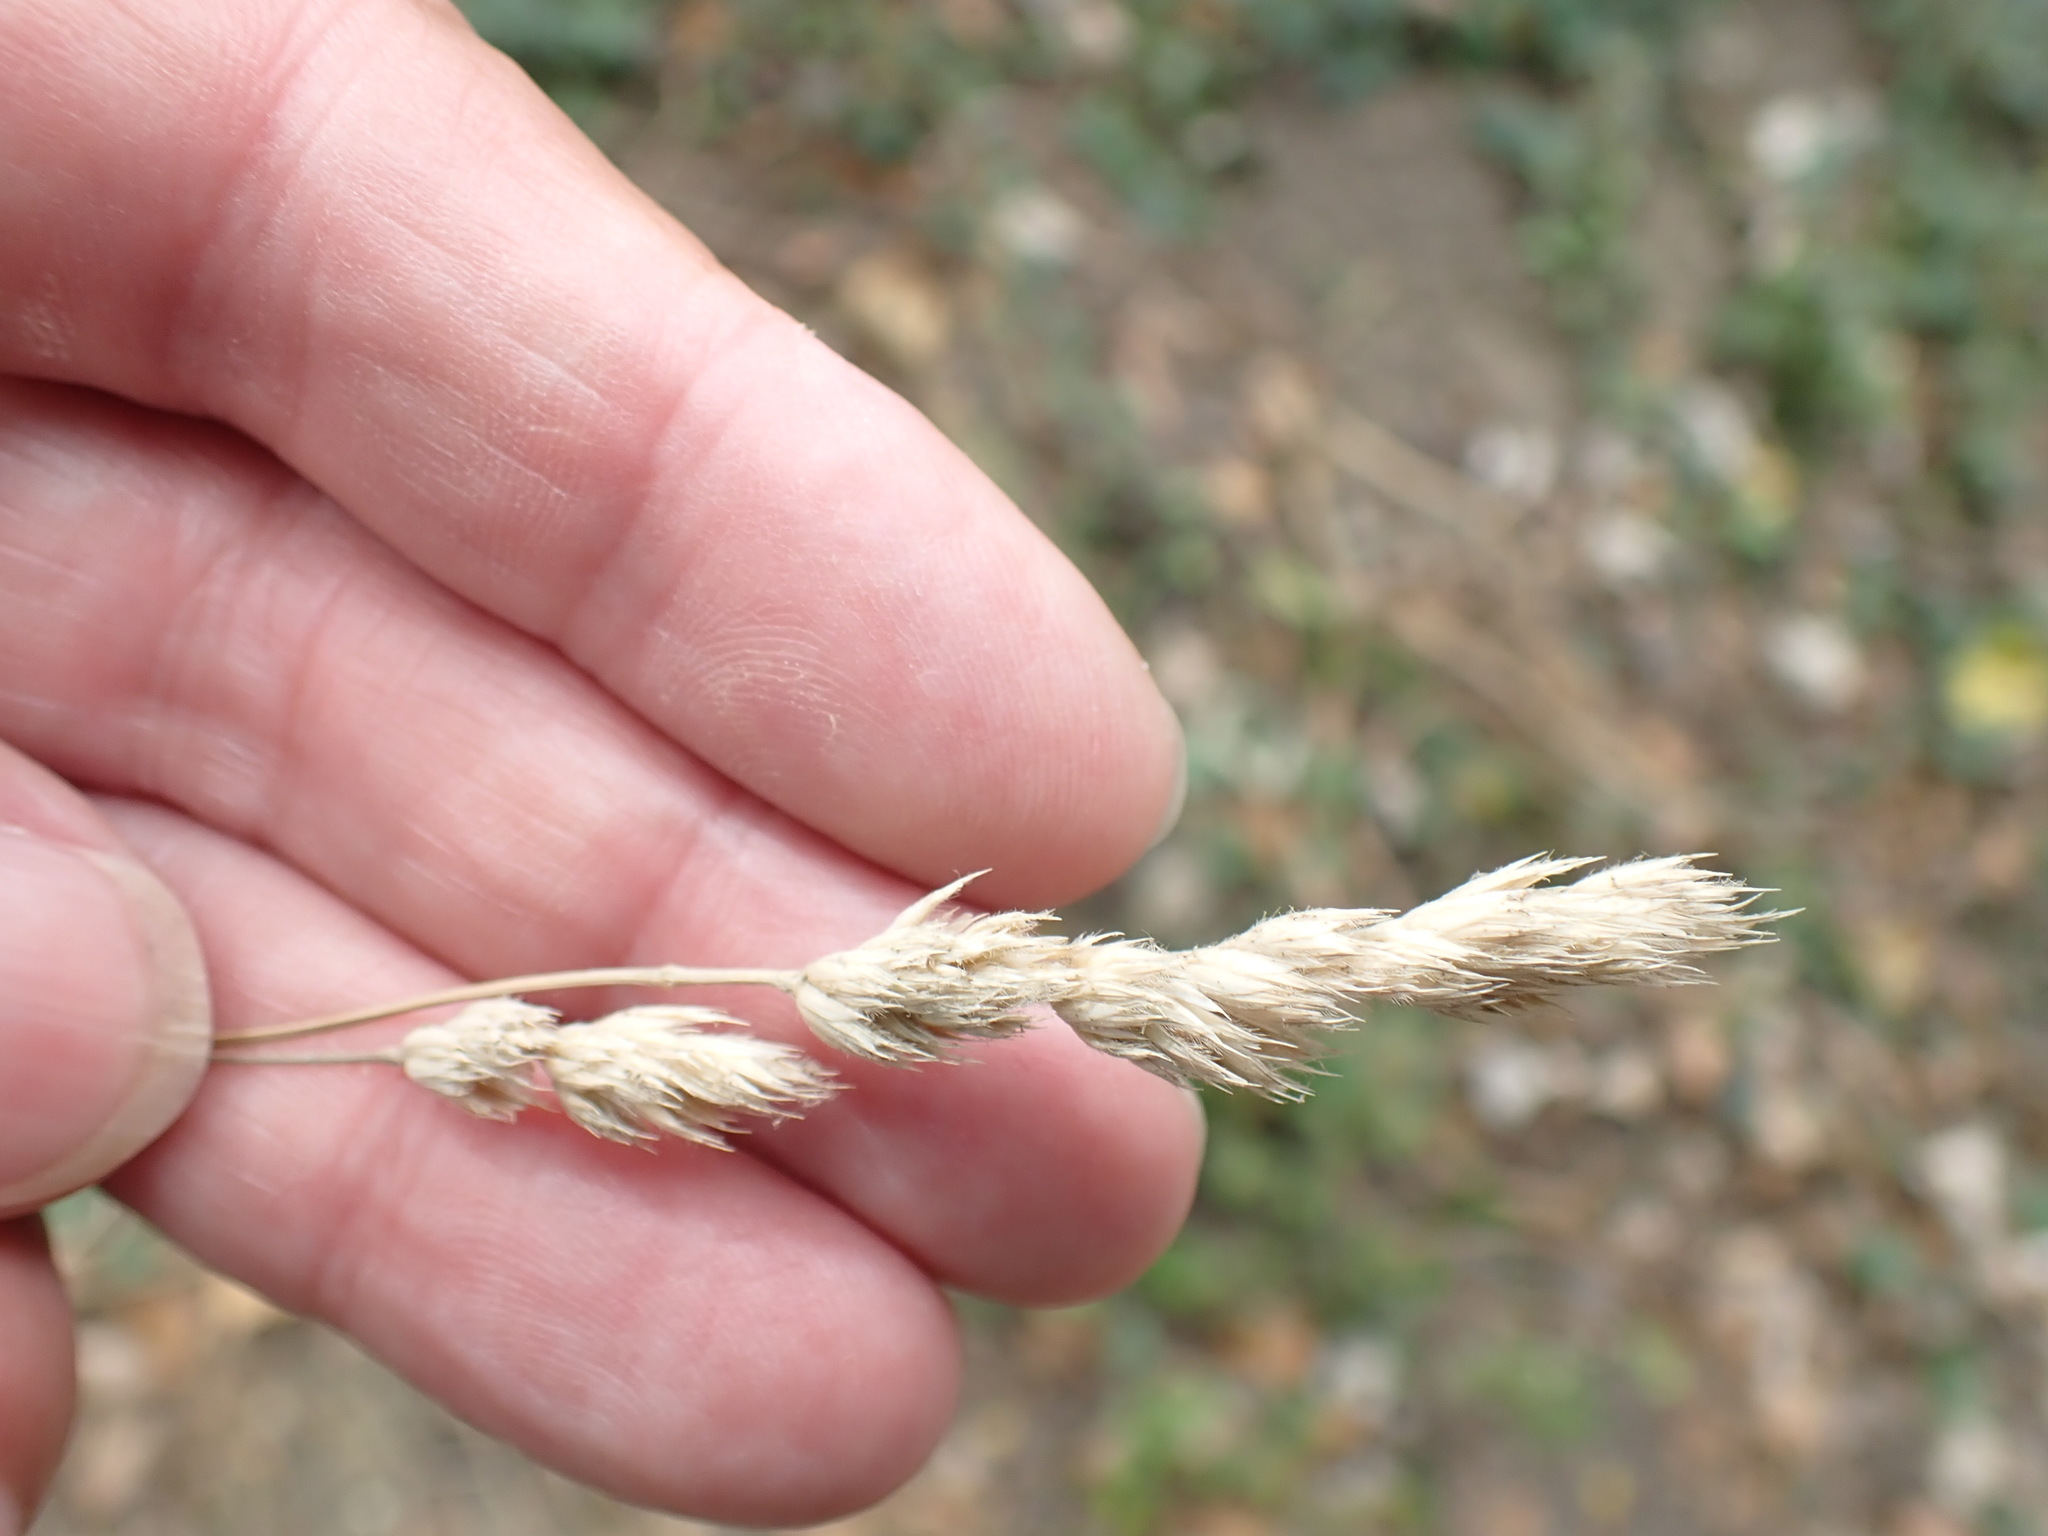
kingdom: Plantae
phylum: Tracheophyta
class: Liliopsida
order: Poales
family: Poaceae
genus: Dactylis
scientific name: Dactylis glomerata
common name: Orchardgrass
